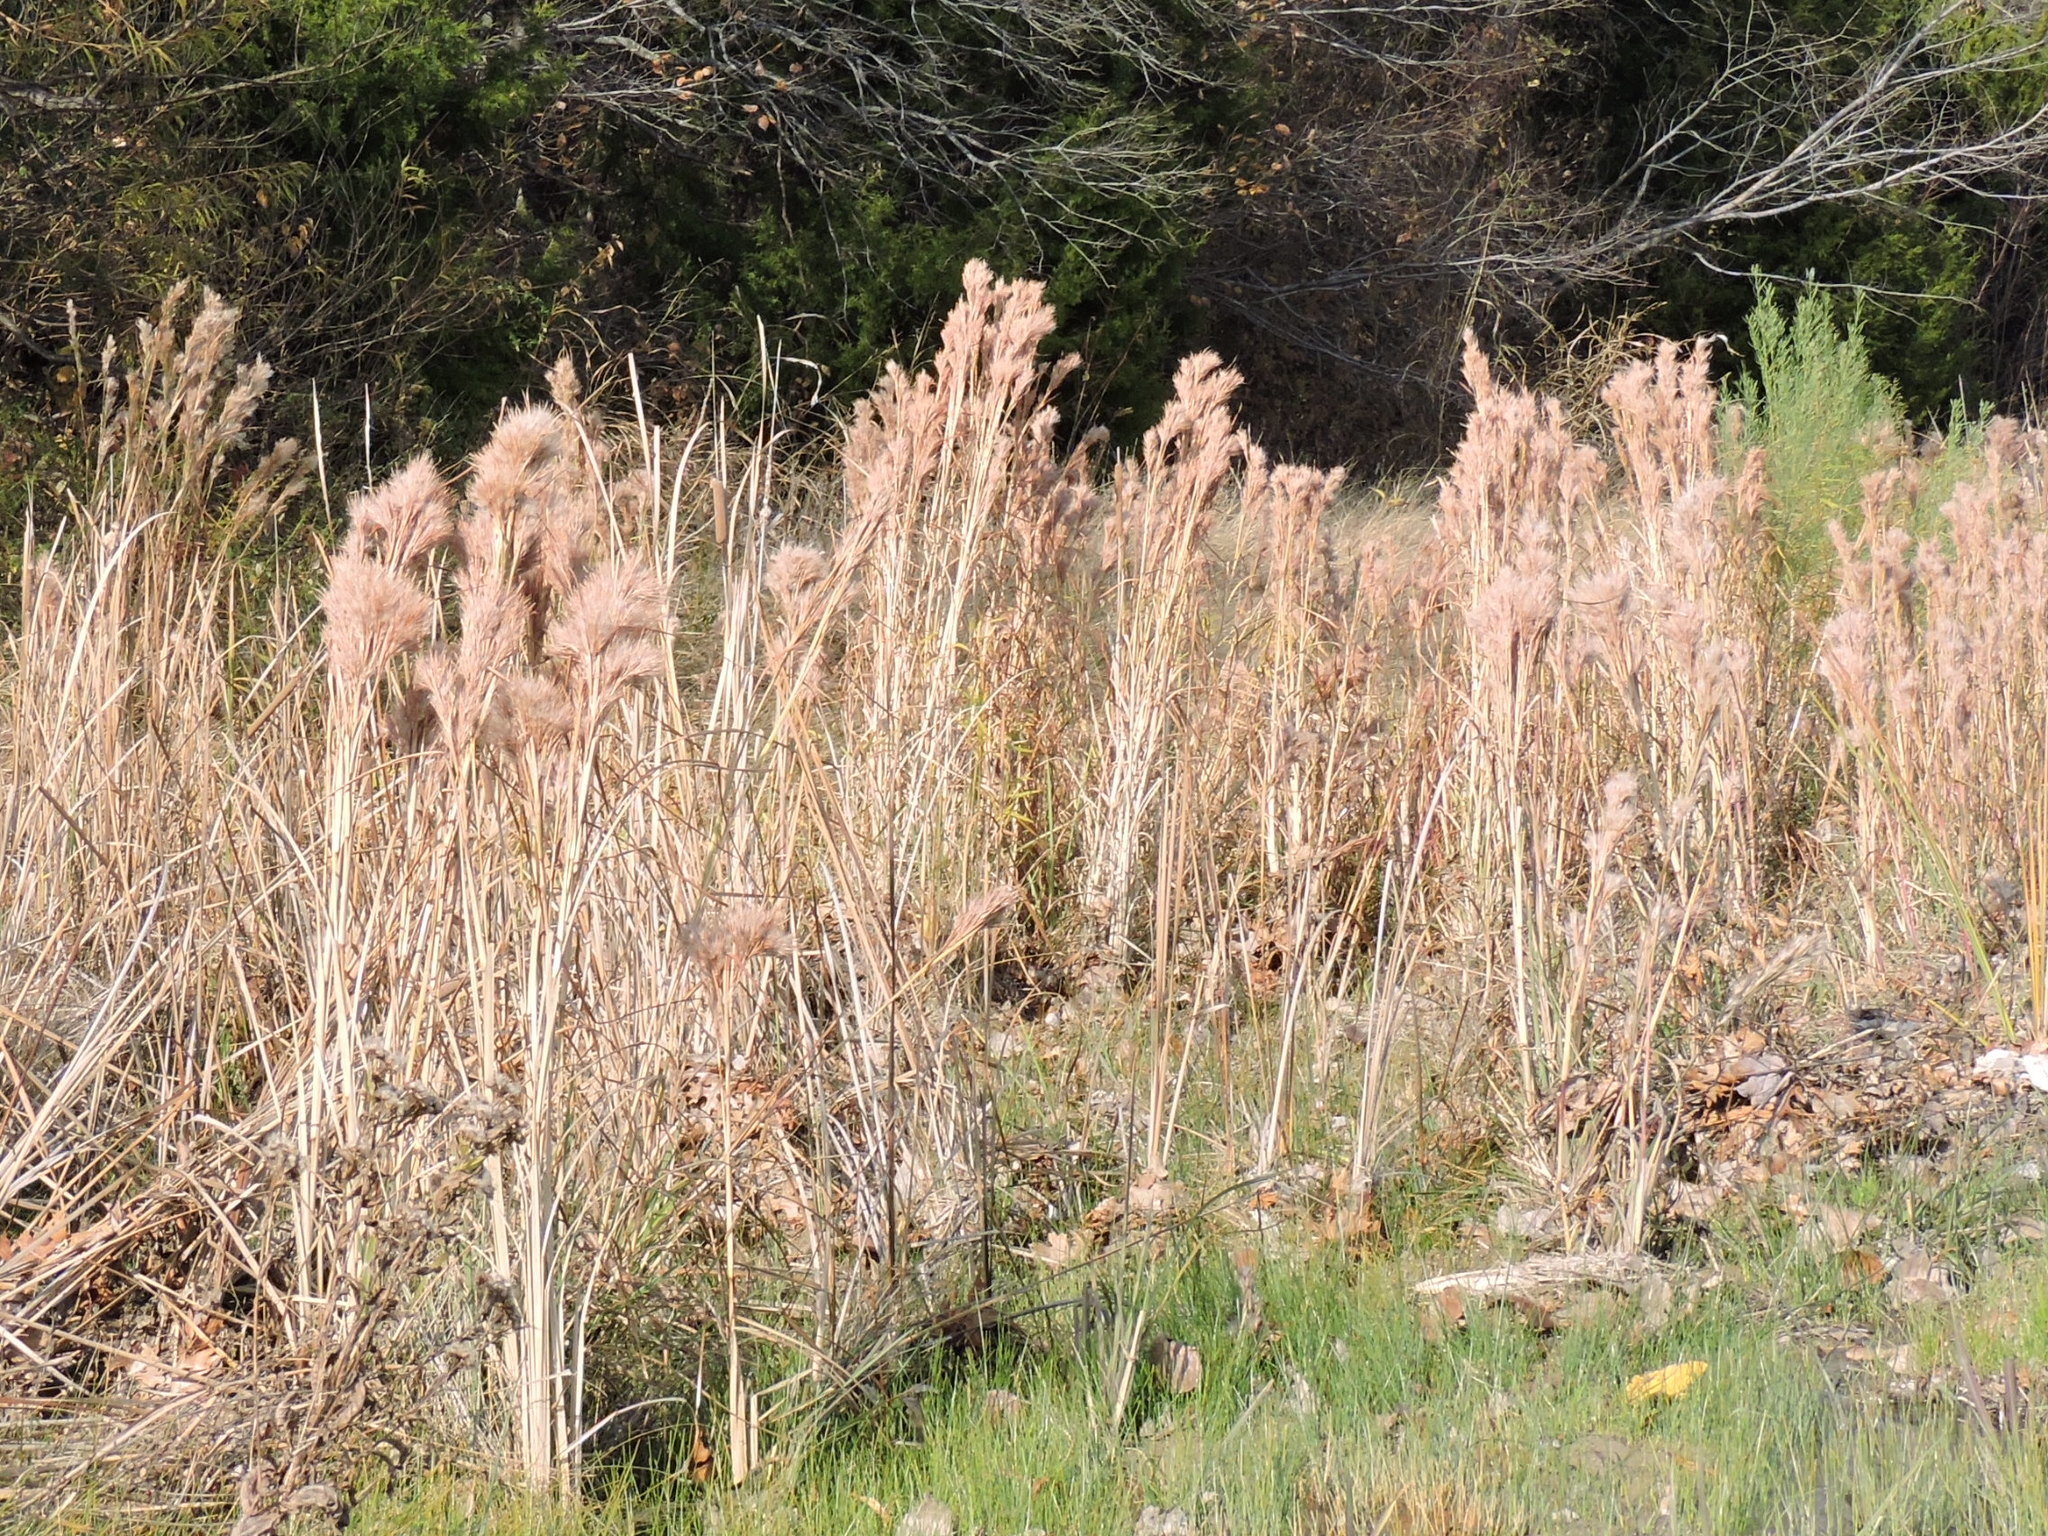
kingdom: Plantae
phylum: Tracheophyta
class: Liliopsida
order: Poales
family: Poaceae
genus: Andropogon
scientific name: Andropogon tenuispatheus
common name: Bushy bluestem
